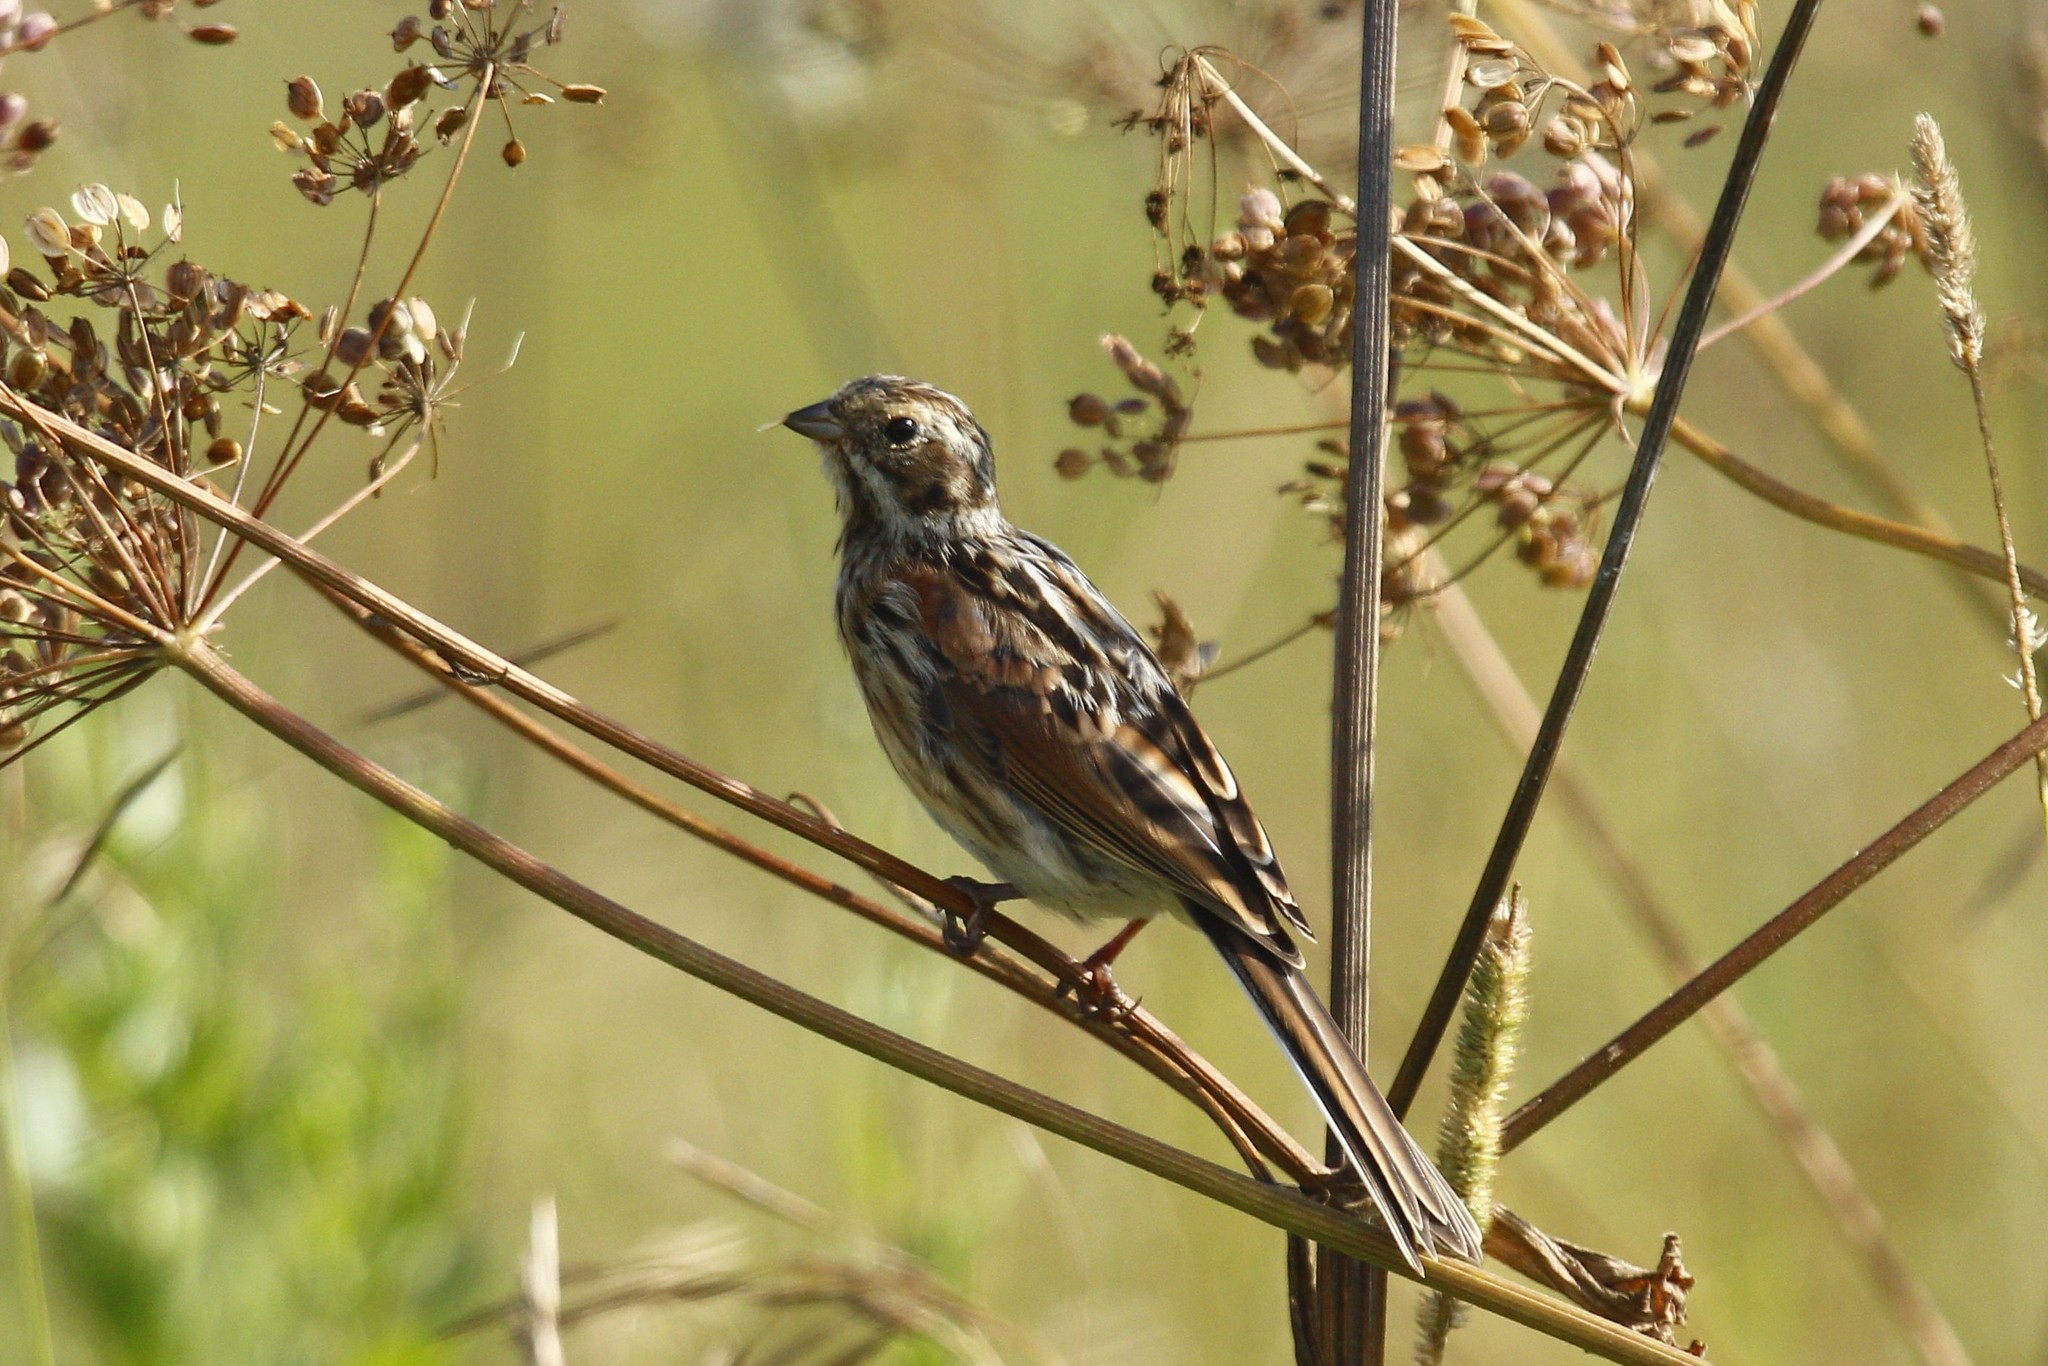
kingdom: Animalia
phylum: Chordata
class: Aves
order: Passeriformes
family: Emberizidae
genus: Emberiza
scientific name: Emberiza schoeniclus
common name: Reed bunting
